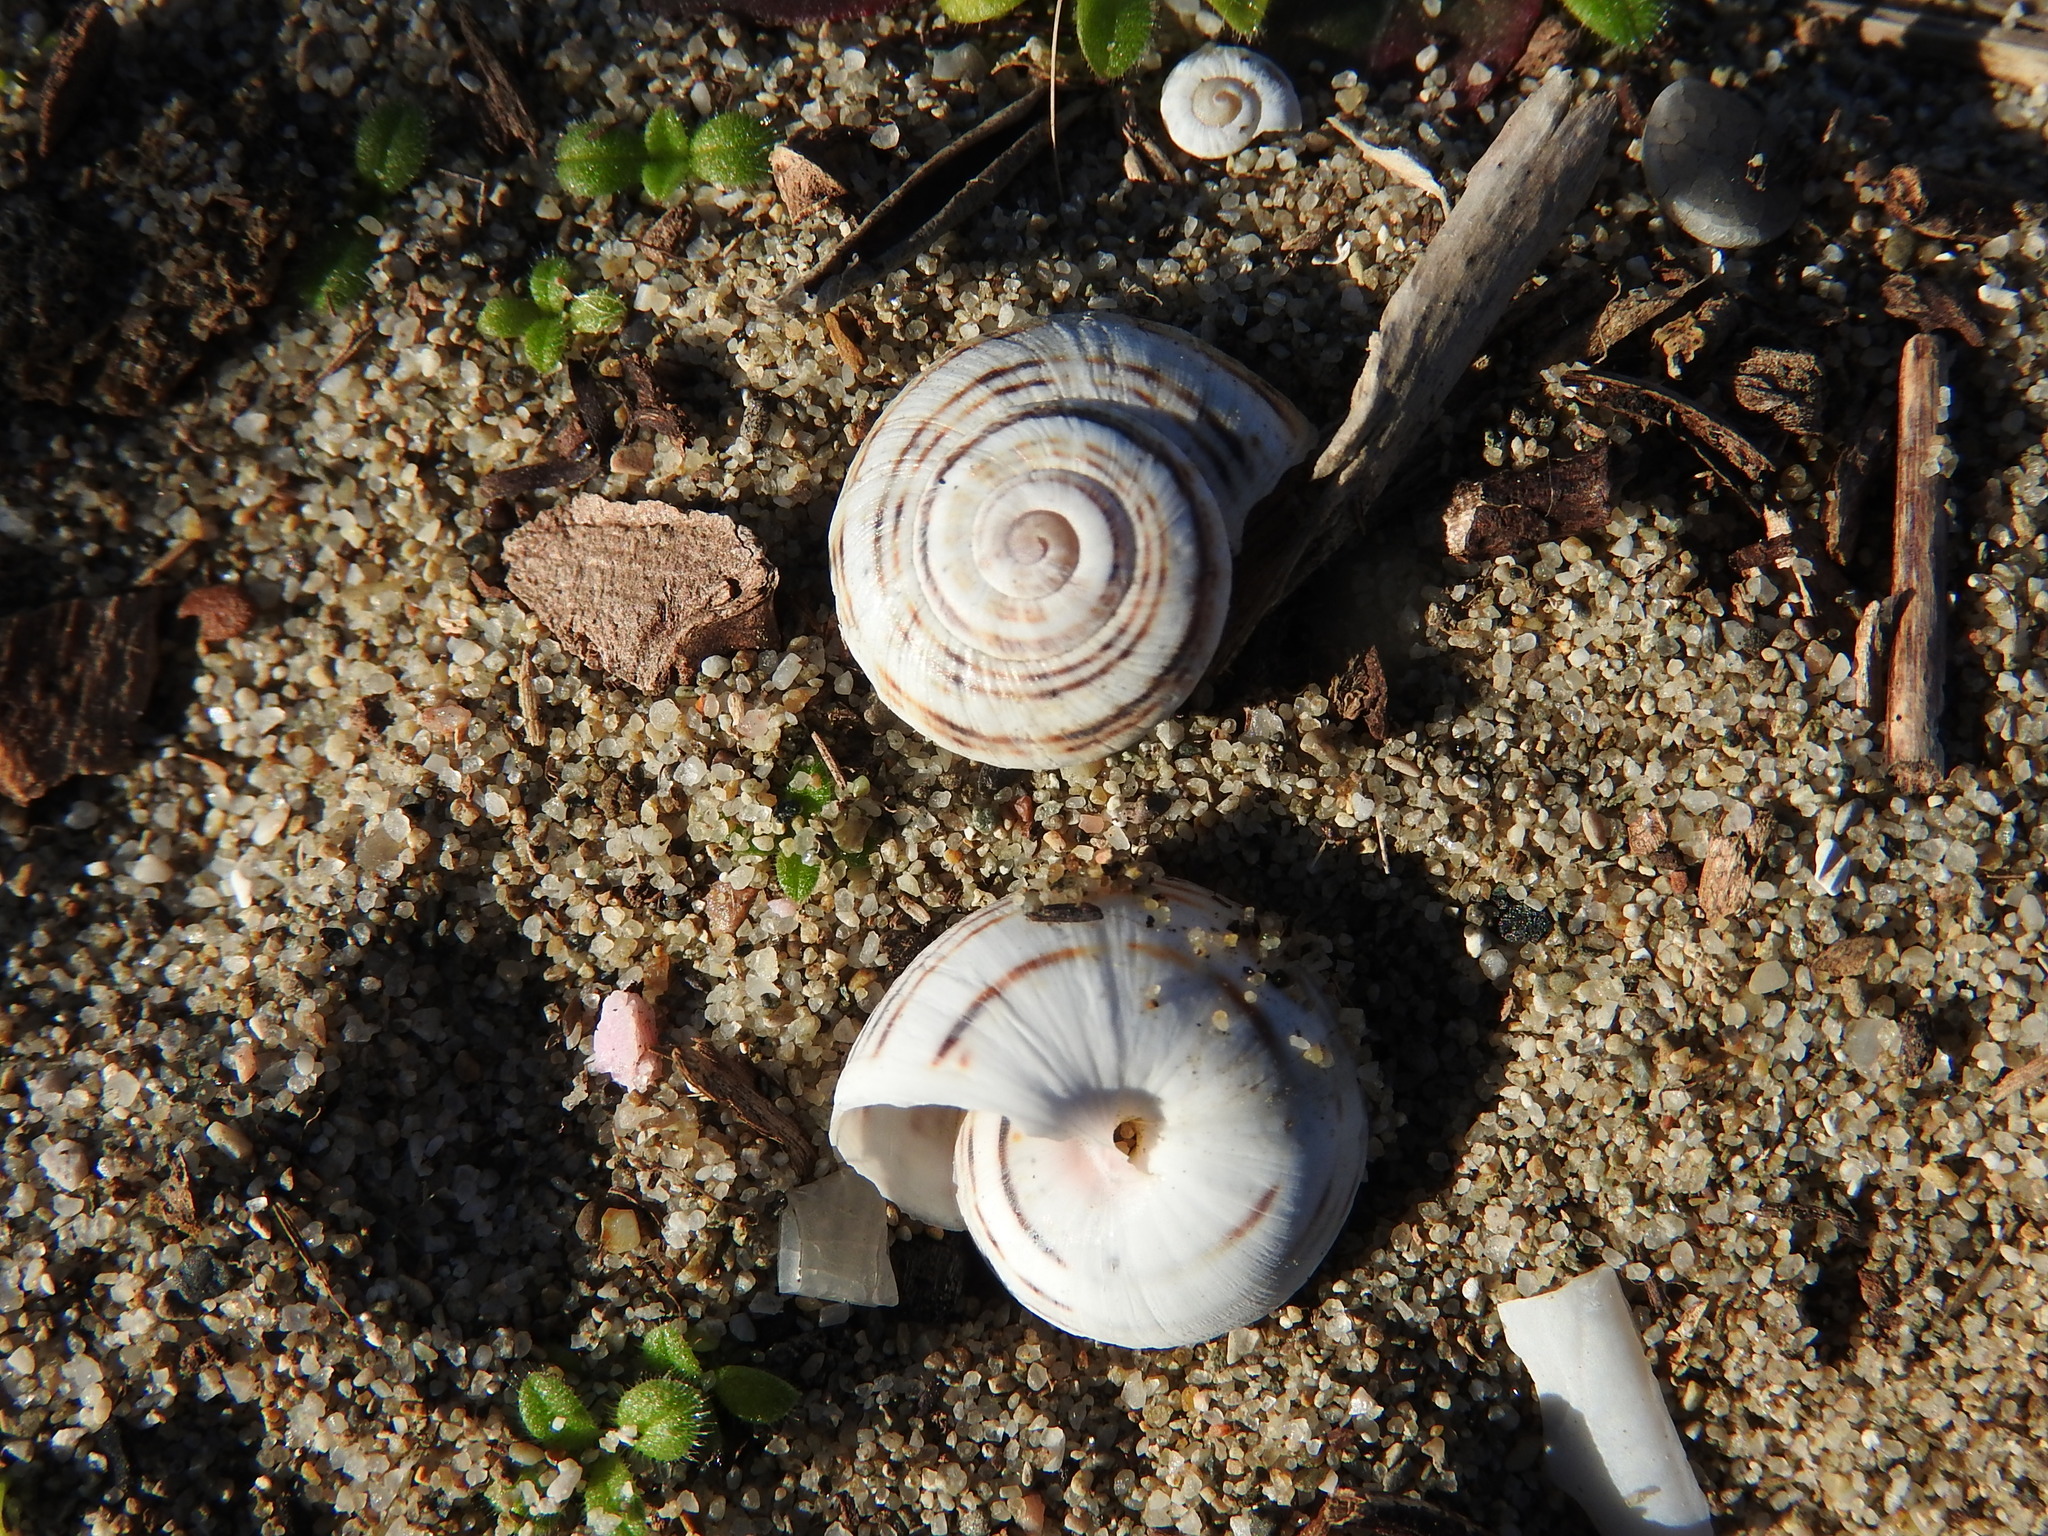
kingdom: Animalia
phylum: Mollusca
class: Gastropoda
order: Stylommatophora
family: Helicidae
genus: Theba
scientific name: Theba pisana
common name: White snail
